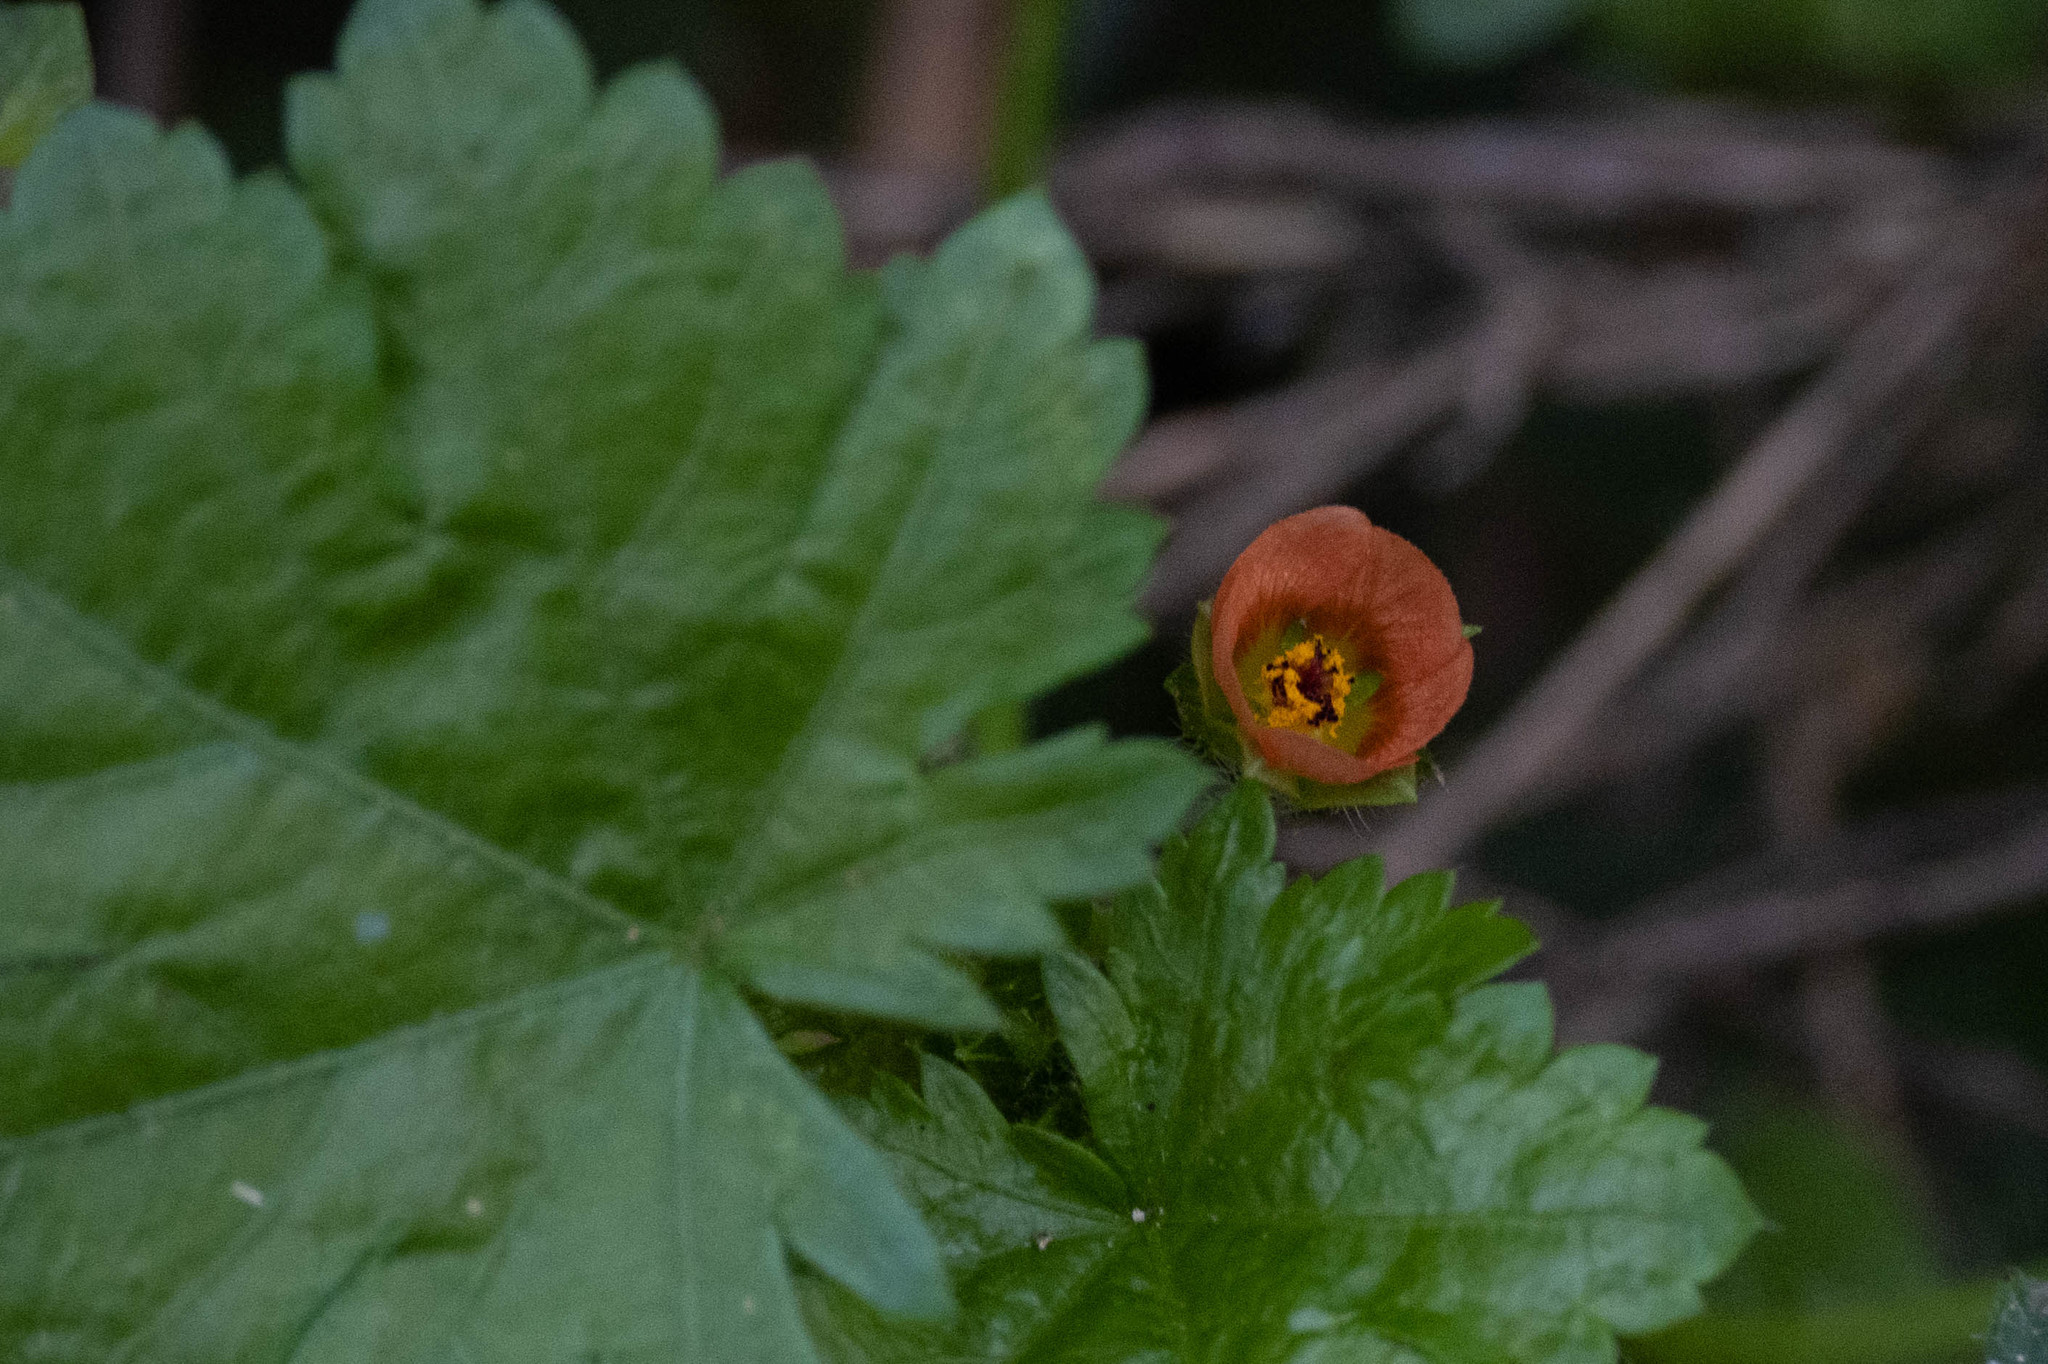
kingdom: Plantae
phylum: Tracheophyta
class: Magnoliopsida
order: Malvales
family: Malvaceae
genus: Modiola
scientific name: Modiola caroliniana
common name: Carolina bristlemallow
